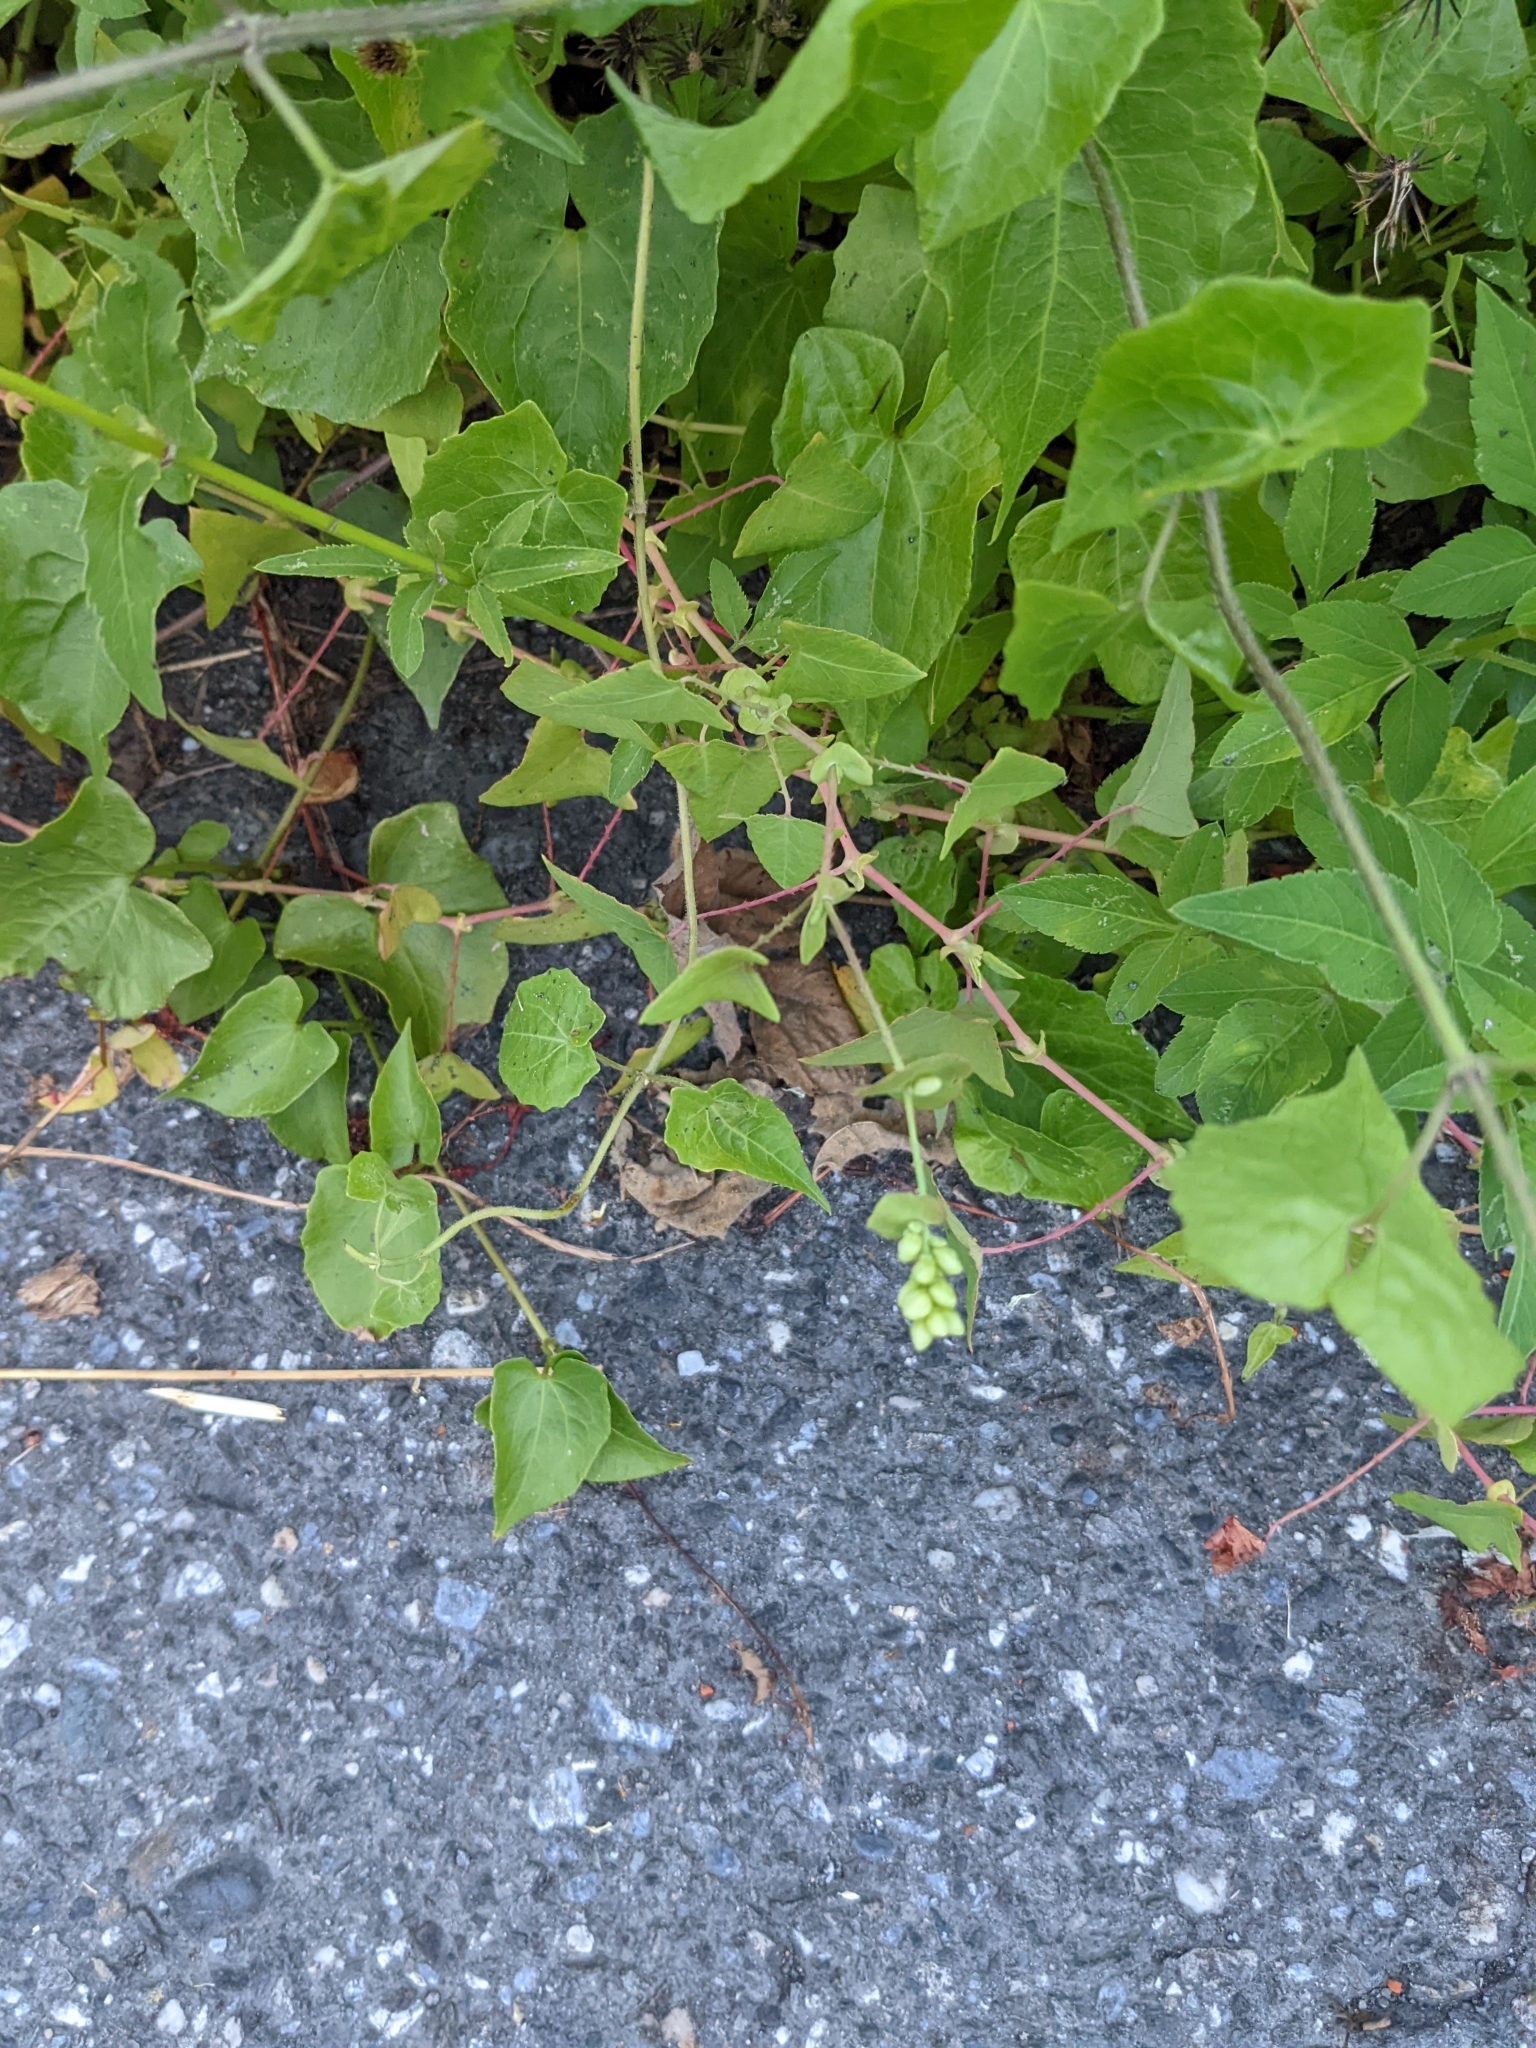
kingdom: Plantae
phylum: Tracheophyta
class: Magnoliopsida
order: Caryophyllales
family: Polygonaceae
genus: Persicaria
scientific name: Persicaria perfoliata
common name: Asiatic tearthumb
